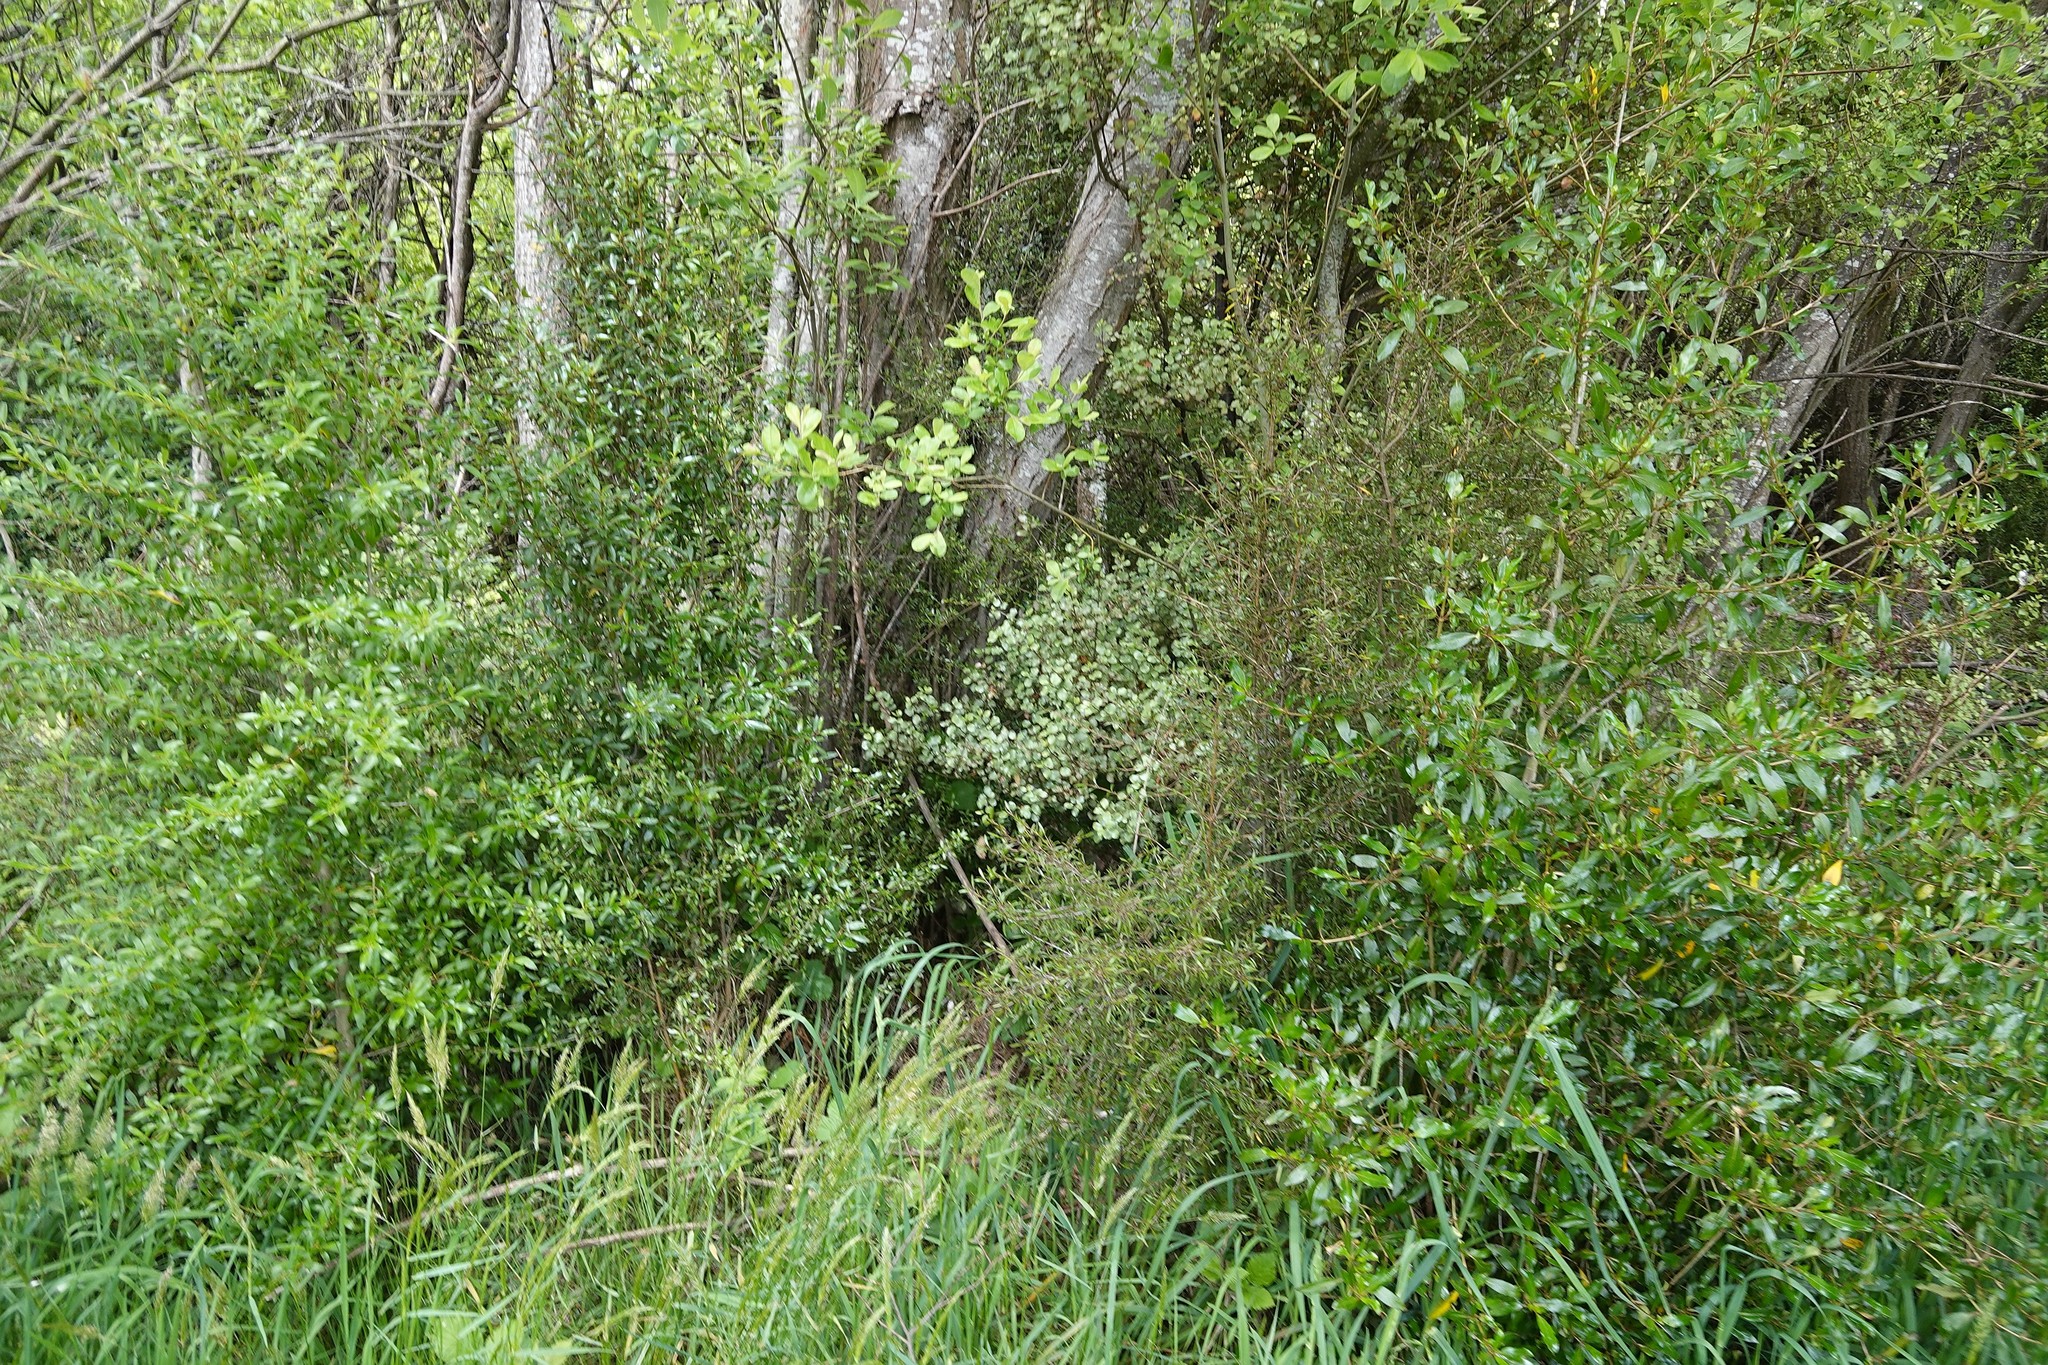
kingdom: Plantae
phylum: Tracheophyta
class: Magnoliopsida
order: Gentianales
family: Rubiaceae
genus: Coprosma
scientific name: Coprosma cunninghamii
